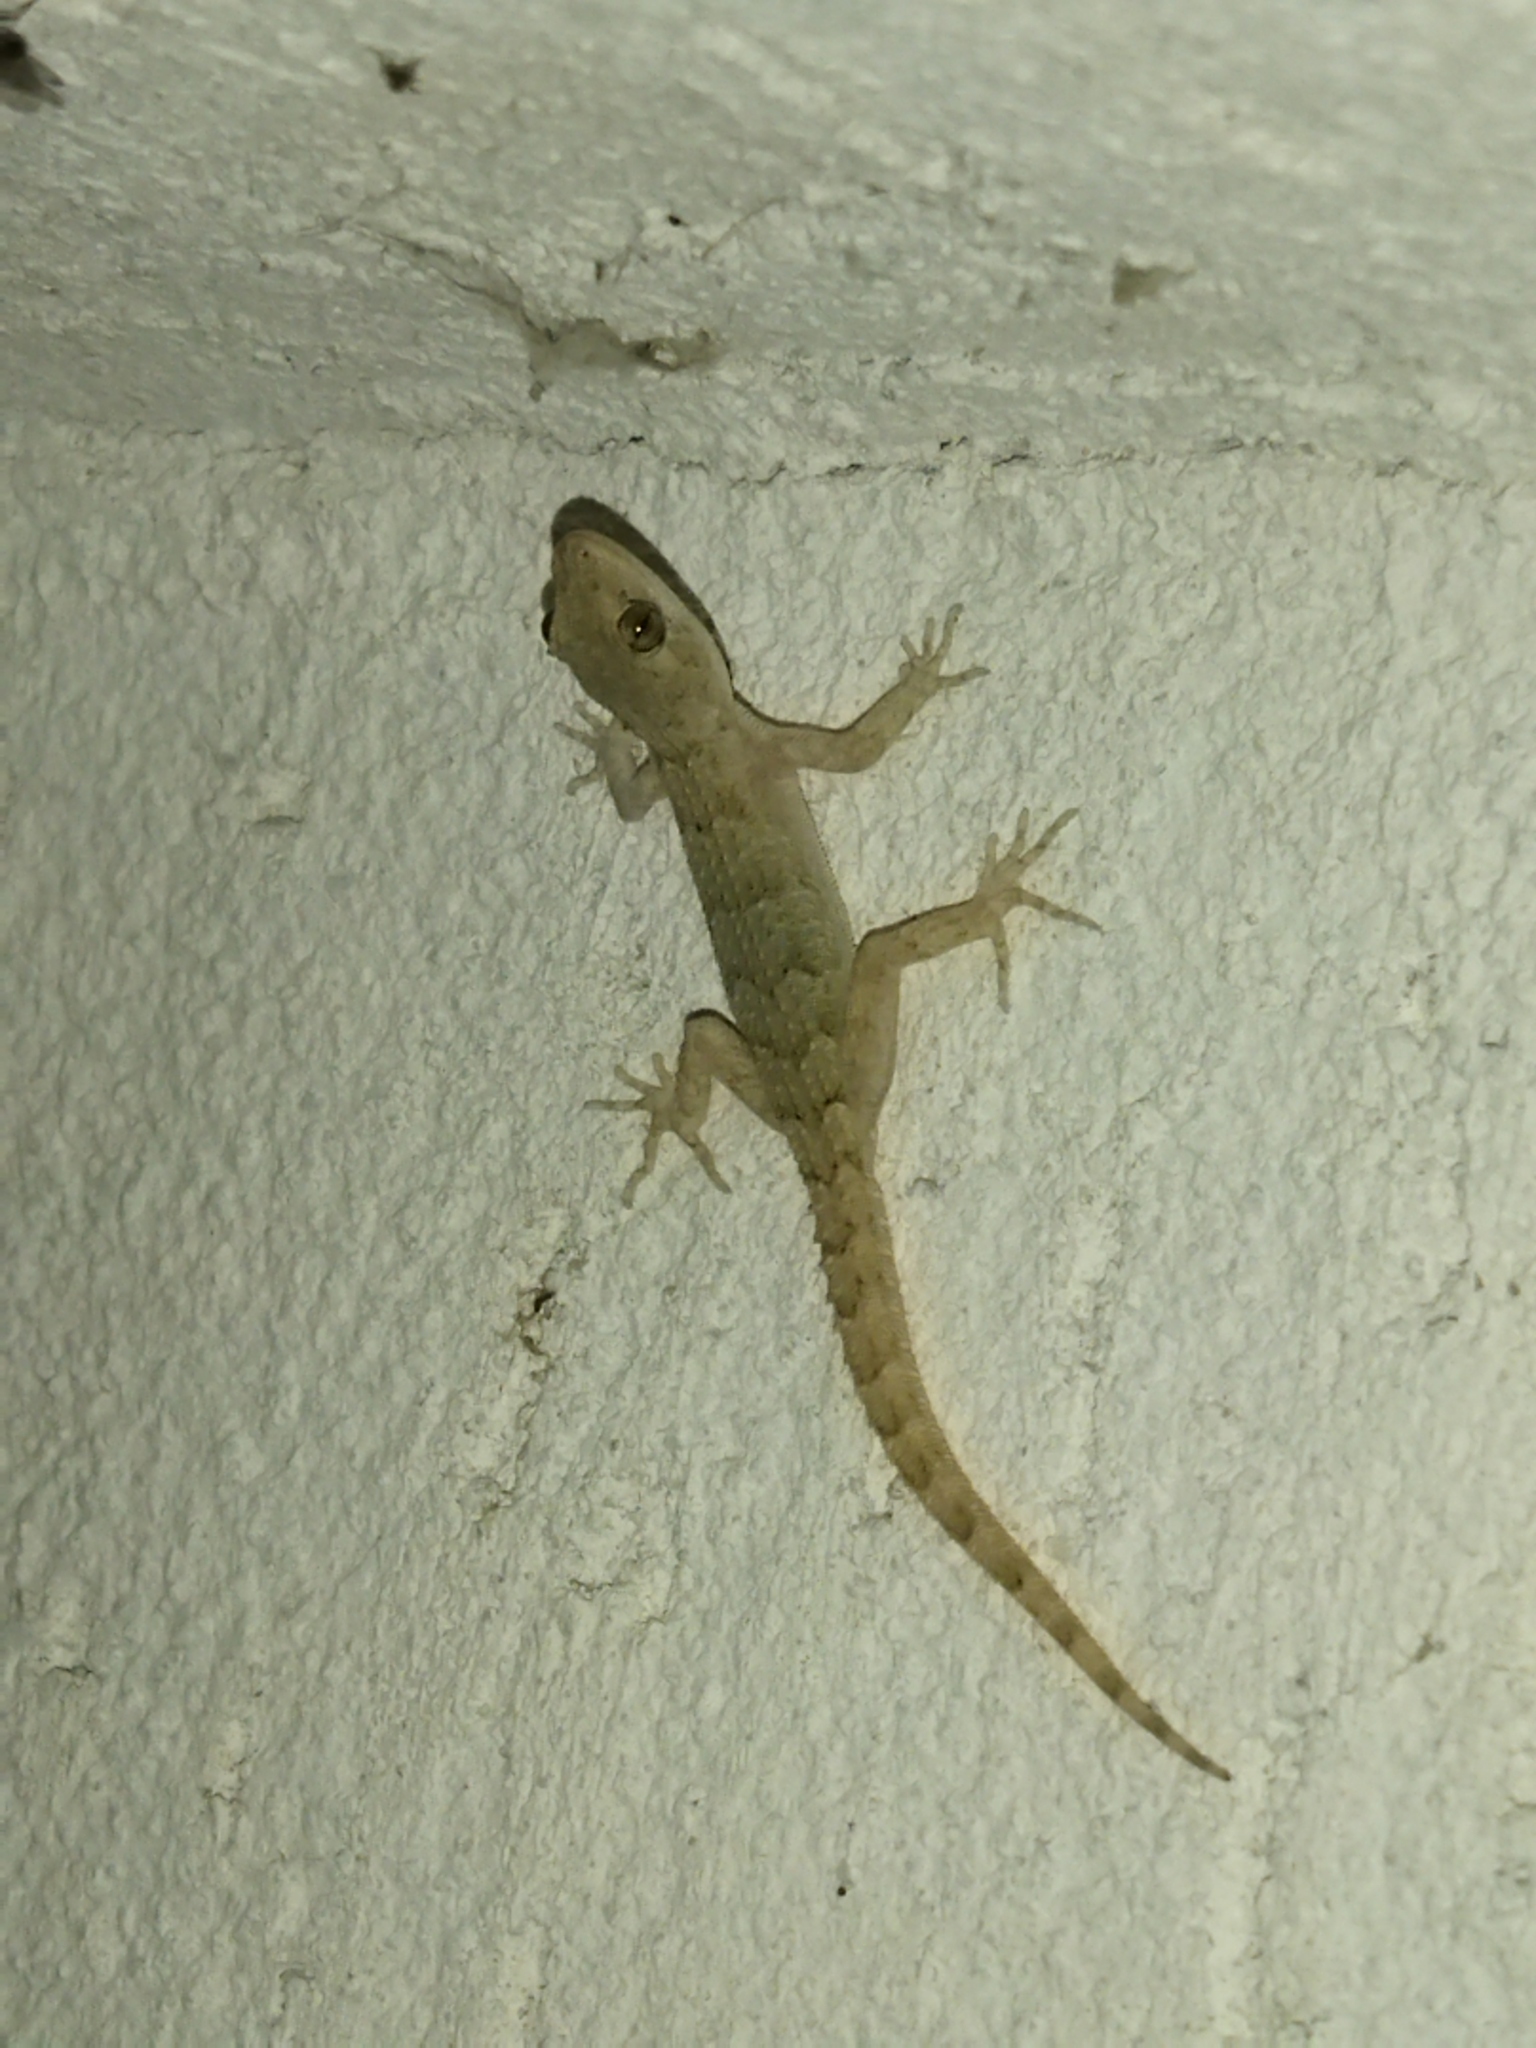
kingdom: Animalia
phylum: Chordata
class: Squamata
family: Gekkonidae
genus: Mediodactylus
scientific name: Mediodactylus kotschyi
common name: Kotschy's gecko
